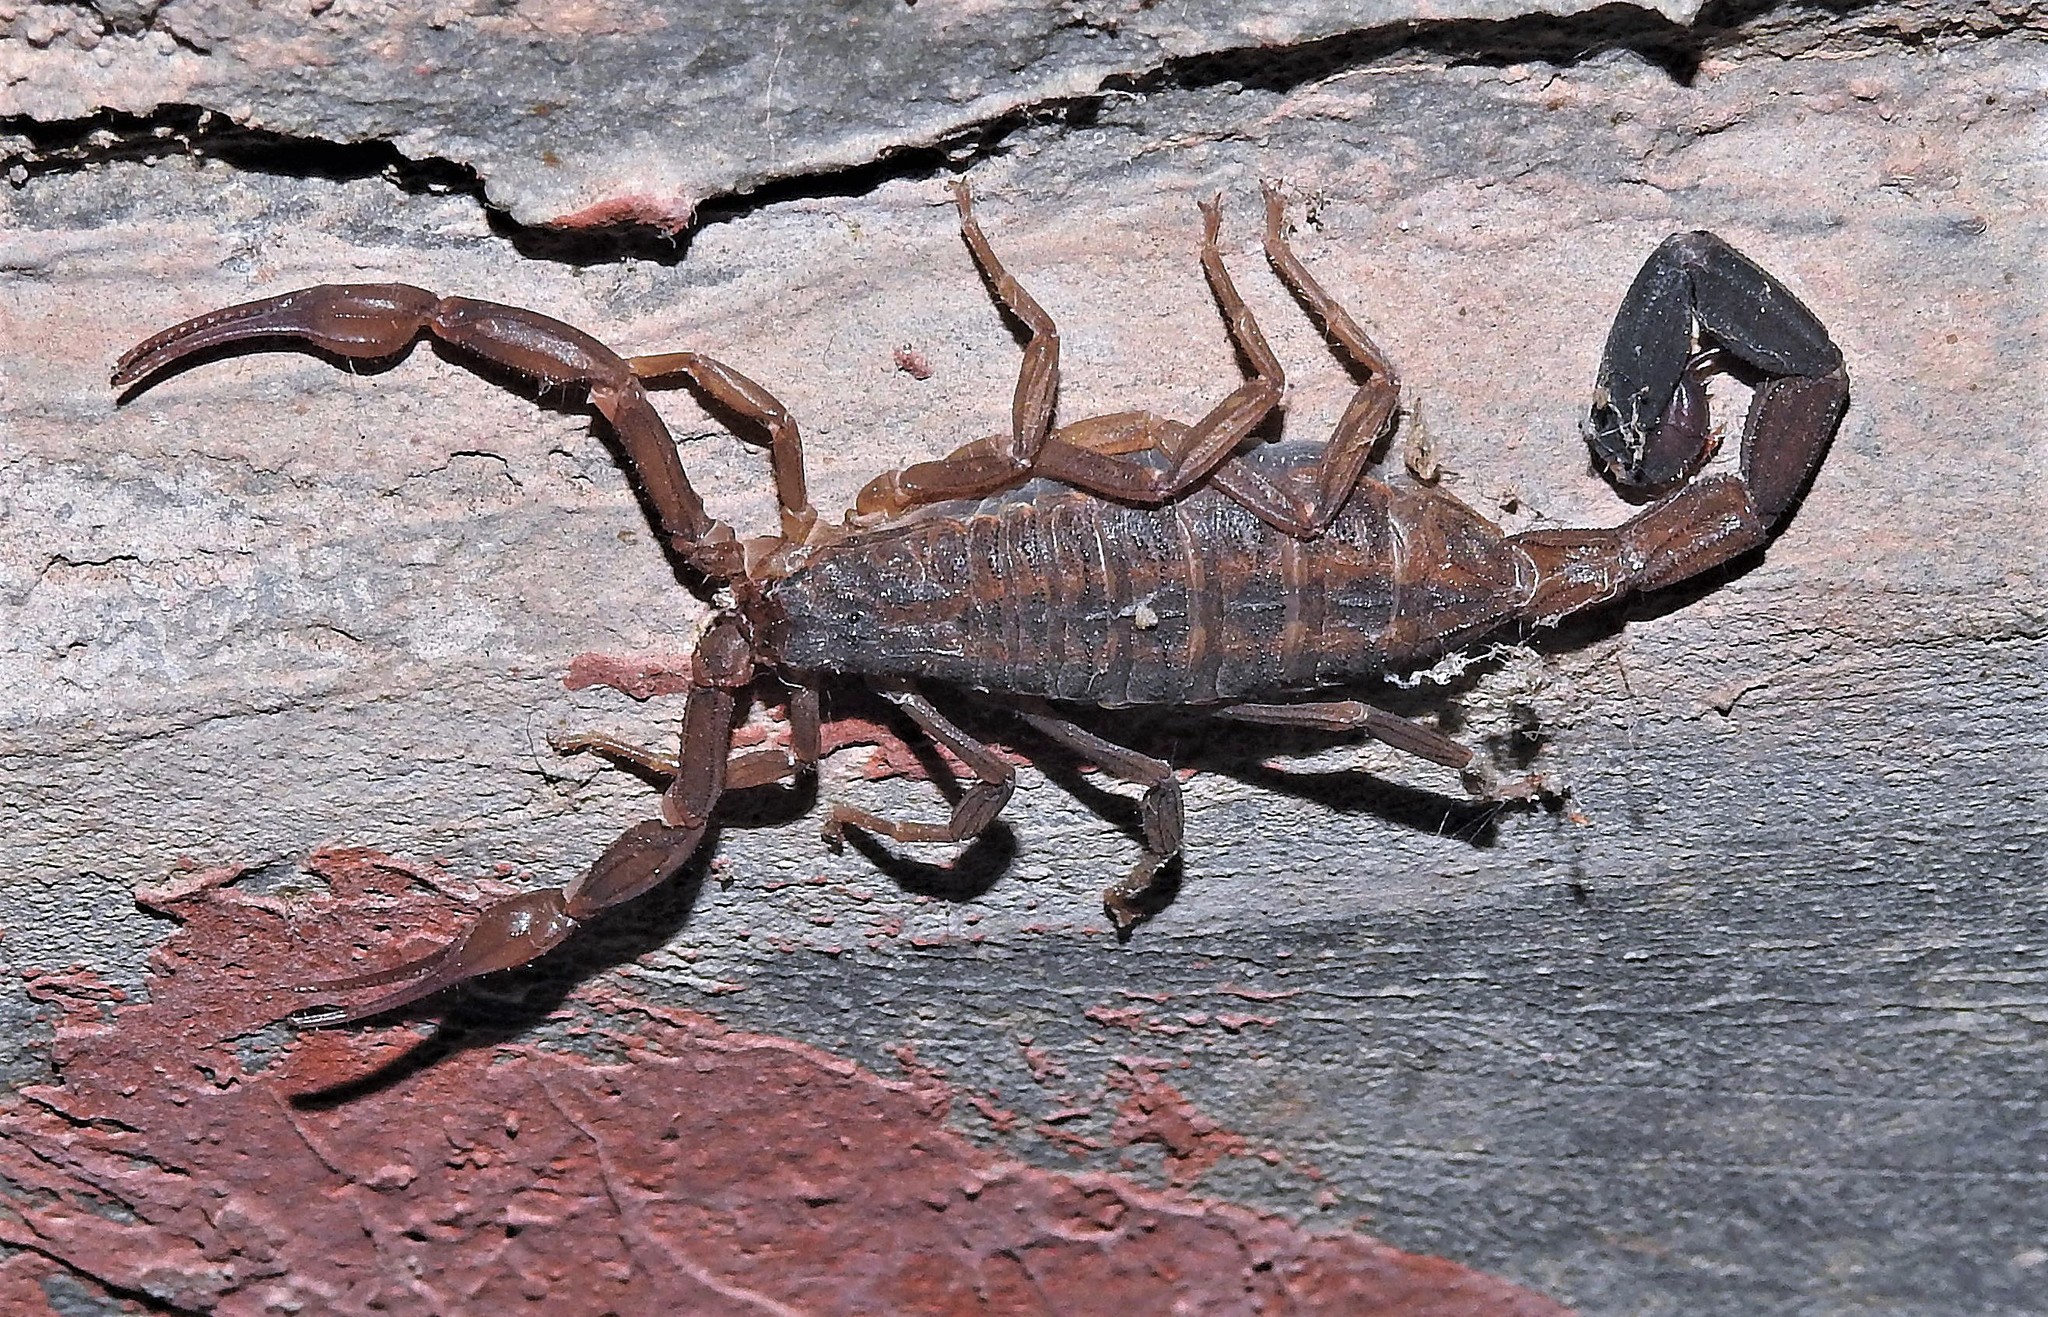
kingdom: Animalia
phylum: Arthropoda
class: Arachnida
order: Scorpiones
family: Buthidae
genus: Tityus
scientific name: Tityus argentinus
